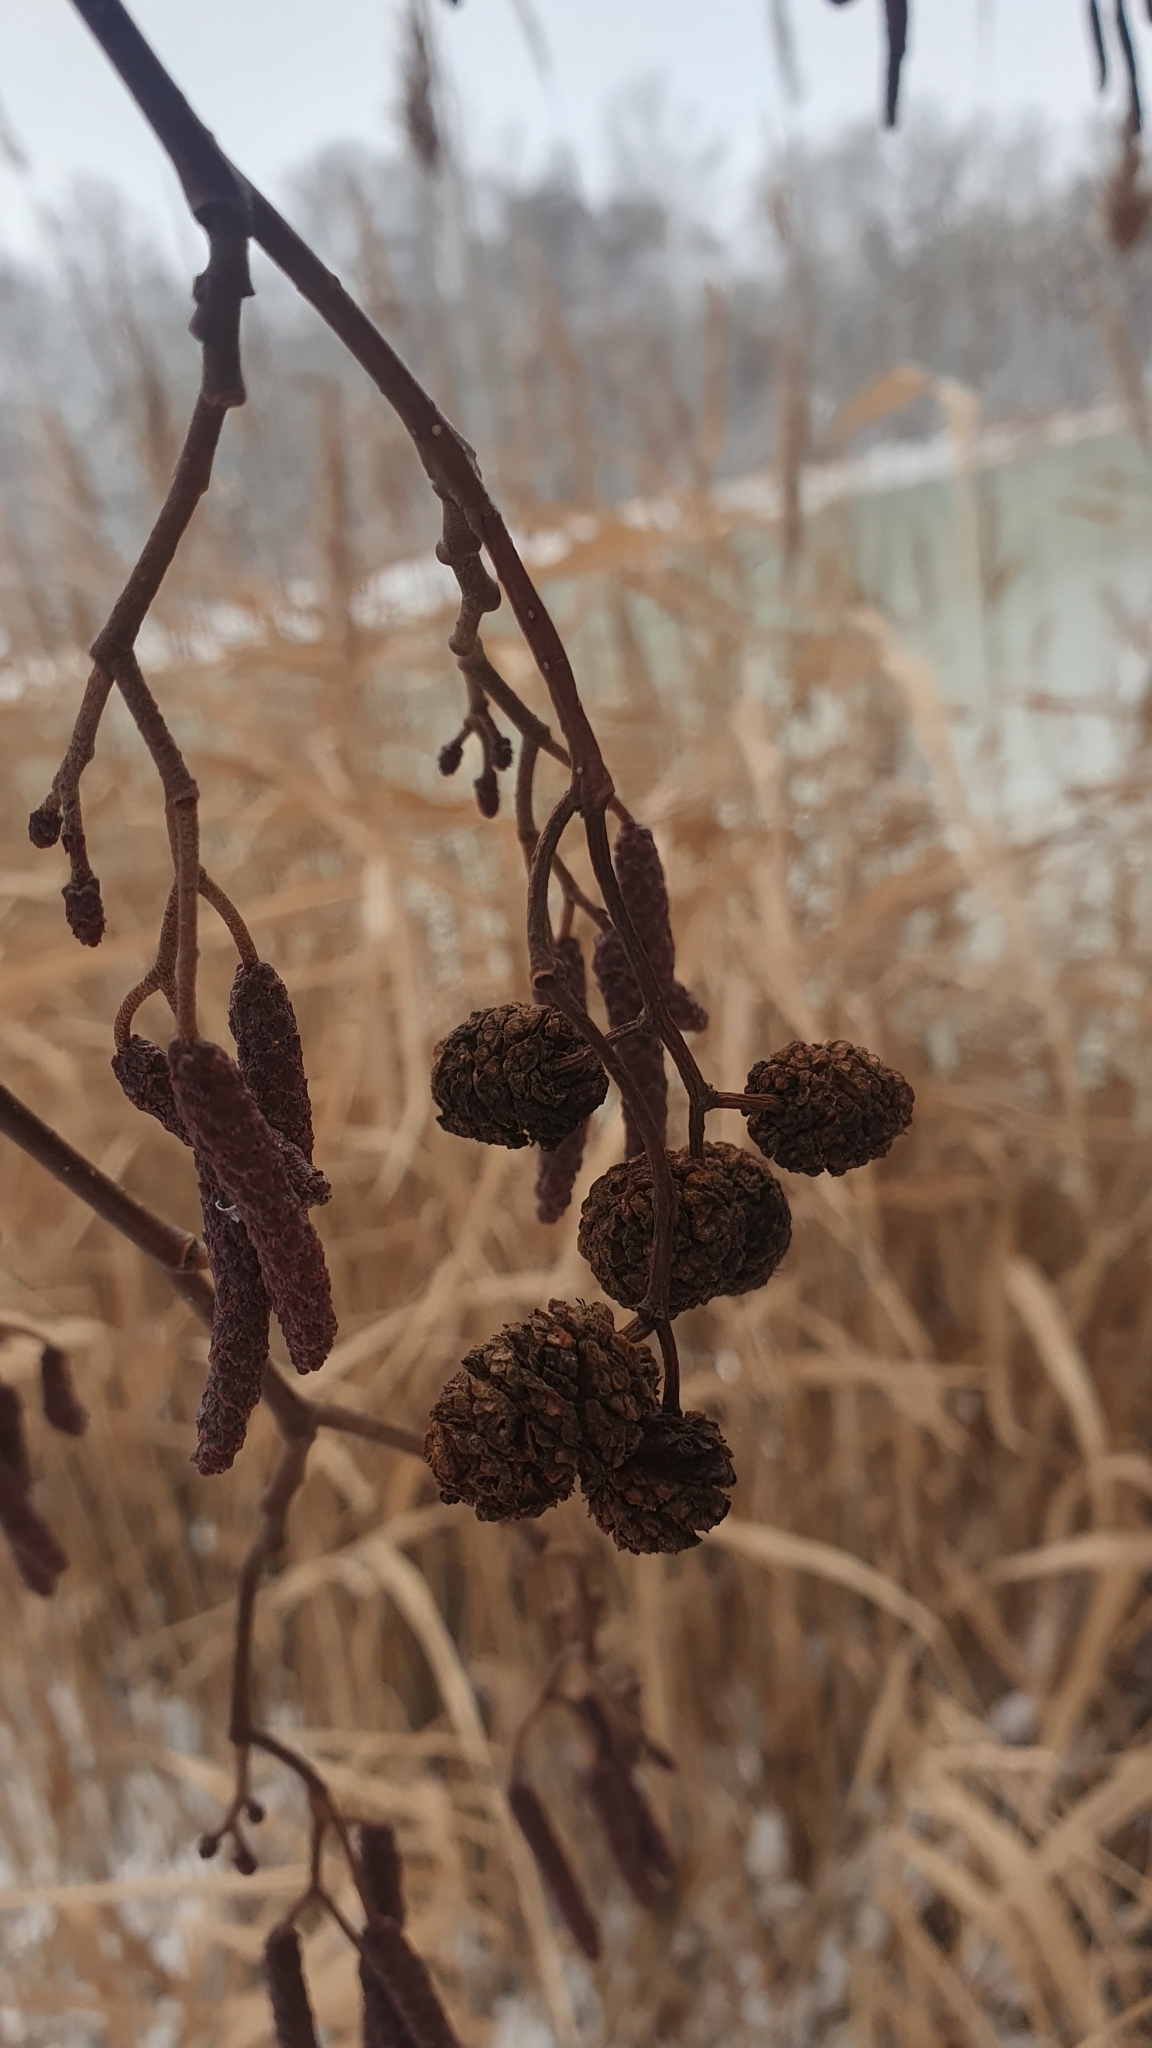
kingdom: Plantae
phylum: Tracheophyta
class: Magnoliopsida
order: Fagales
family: Betulaceae
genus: Alnus
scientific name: Alnus glutinosa
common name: Black alder
